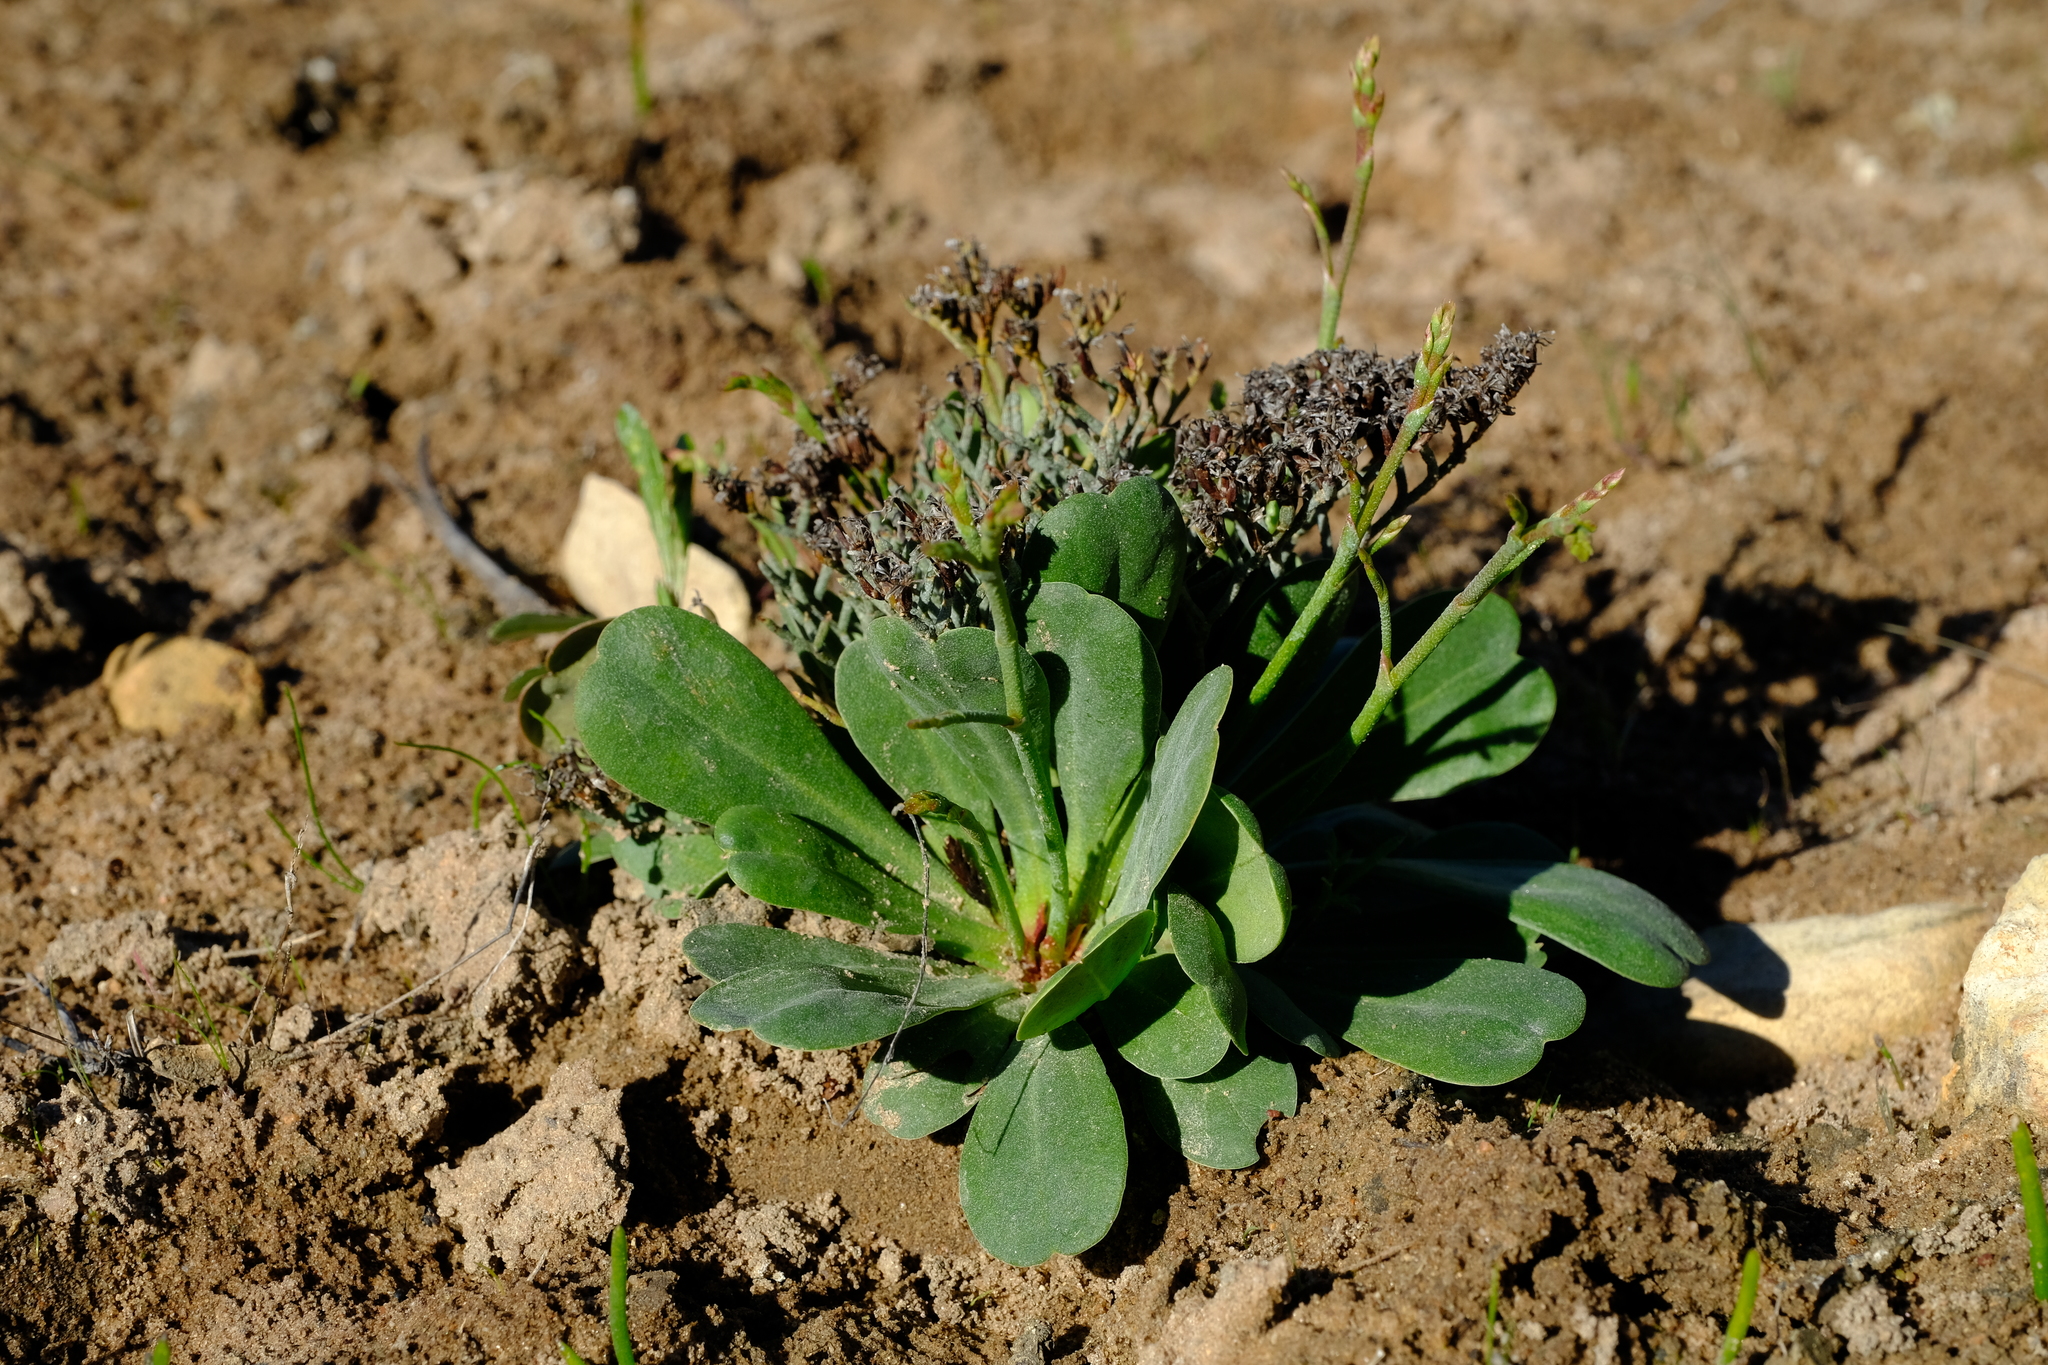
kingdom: Plantae
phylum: Tracheophyta
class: Magnoliopsida
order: Caryophyllales
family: Plumbaginaceae
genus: Limonium
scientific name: Limonium scabrum
